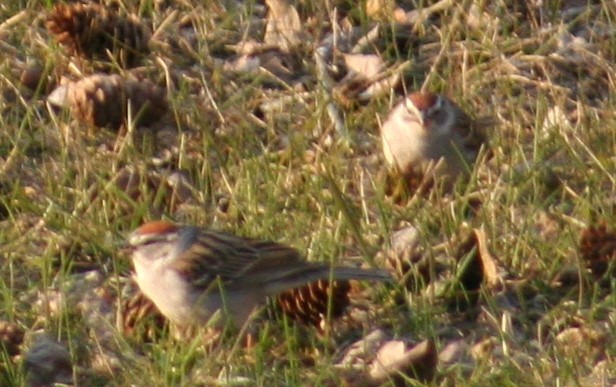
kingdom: Animalia
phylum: Chordata
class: Aves
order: Passeriformes
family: Passerellidae
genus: Spizella
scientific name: Spizella passerina
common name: Chipping sparrow
